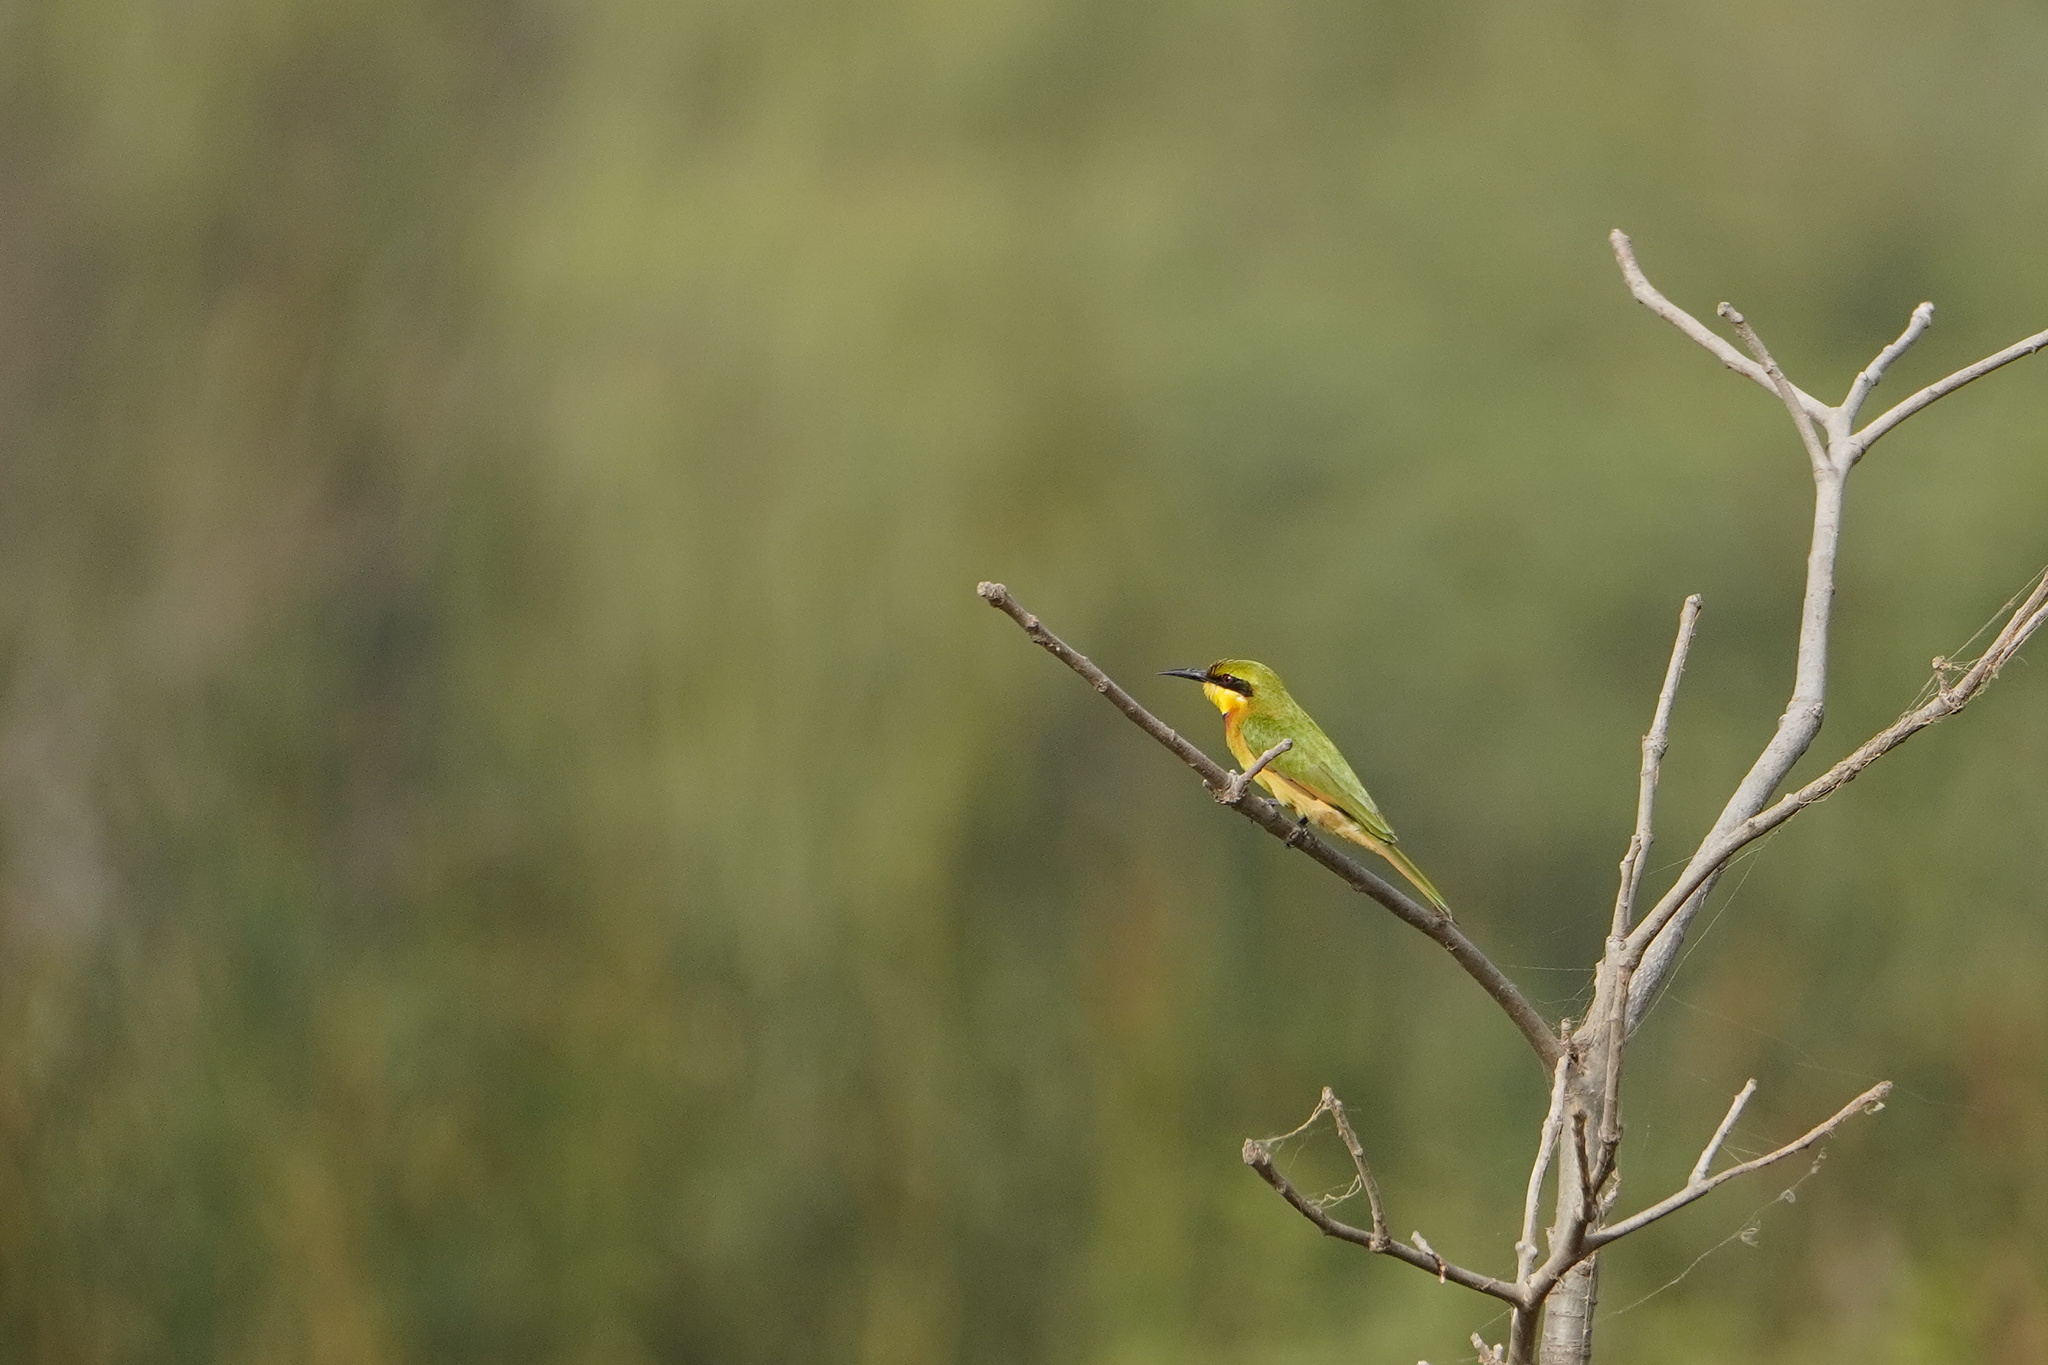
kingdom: Animalia
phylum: Chordata
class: Aves
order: Coraciiformes
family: Meropidae
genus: Merops
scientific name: Merops pusillus
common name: Little bee-eater
